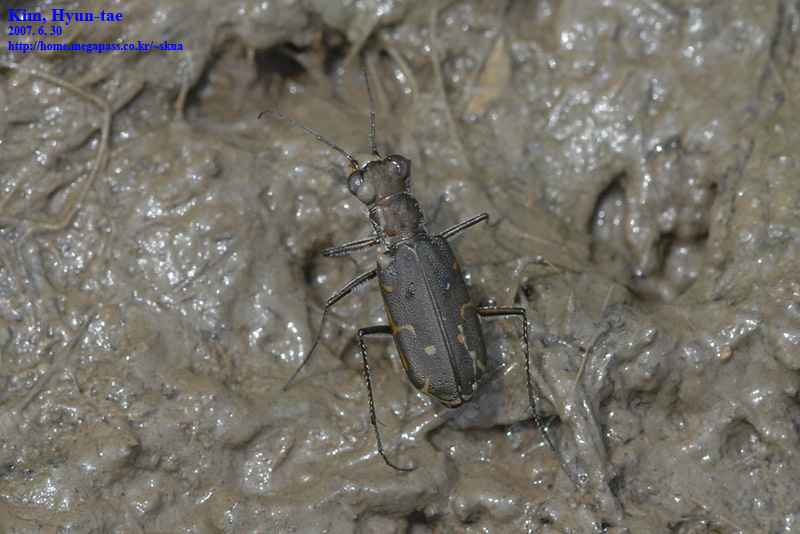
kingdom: Animalia
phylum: Arthropoda
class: Insecta
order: Coleoptera
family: Carabidae
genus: Myriochila
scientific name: Myriochila specularis
